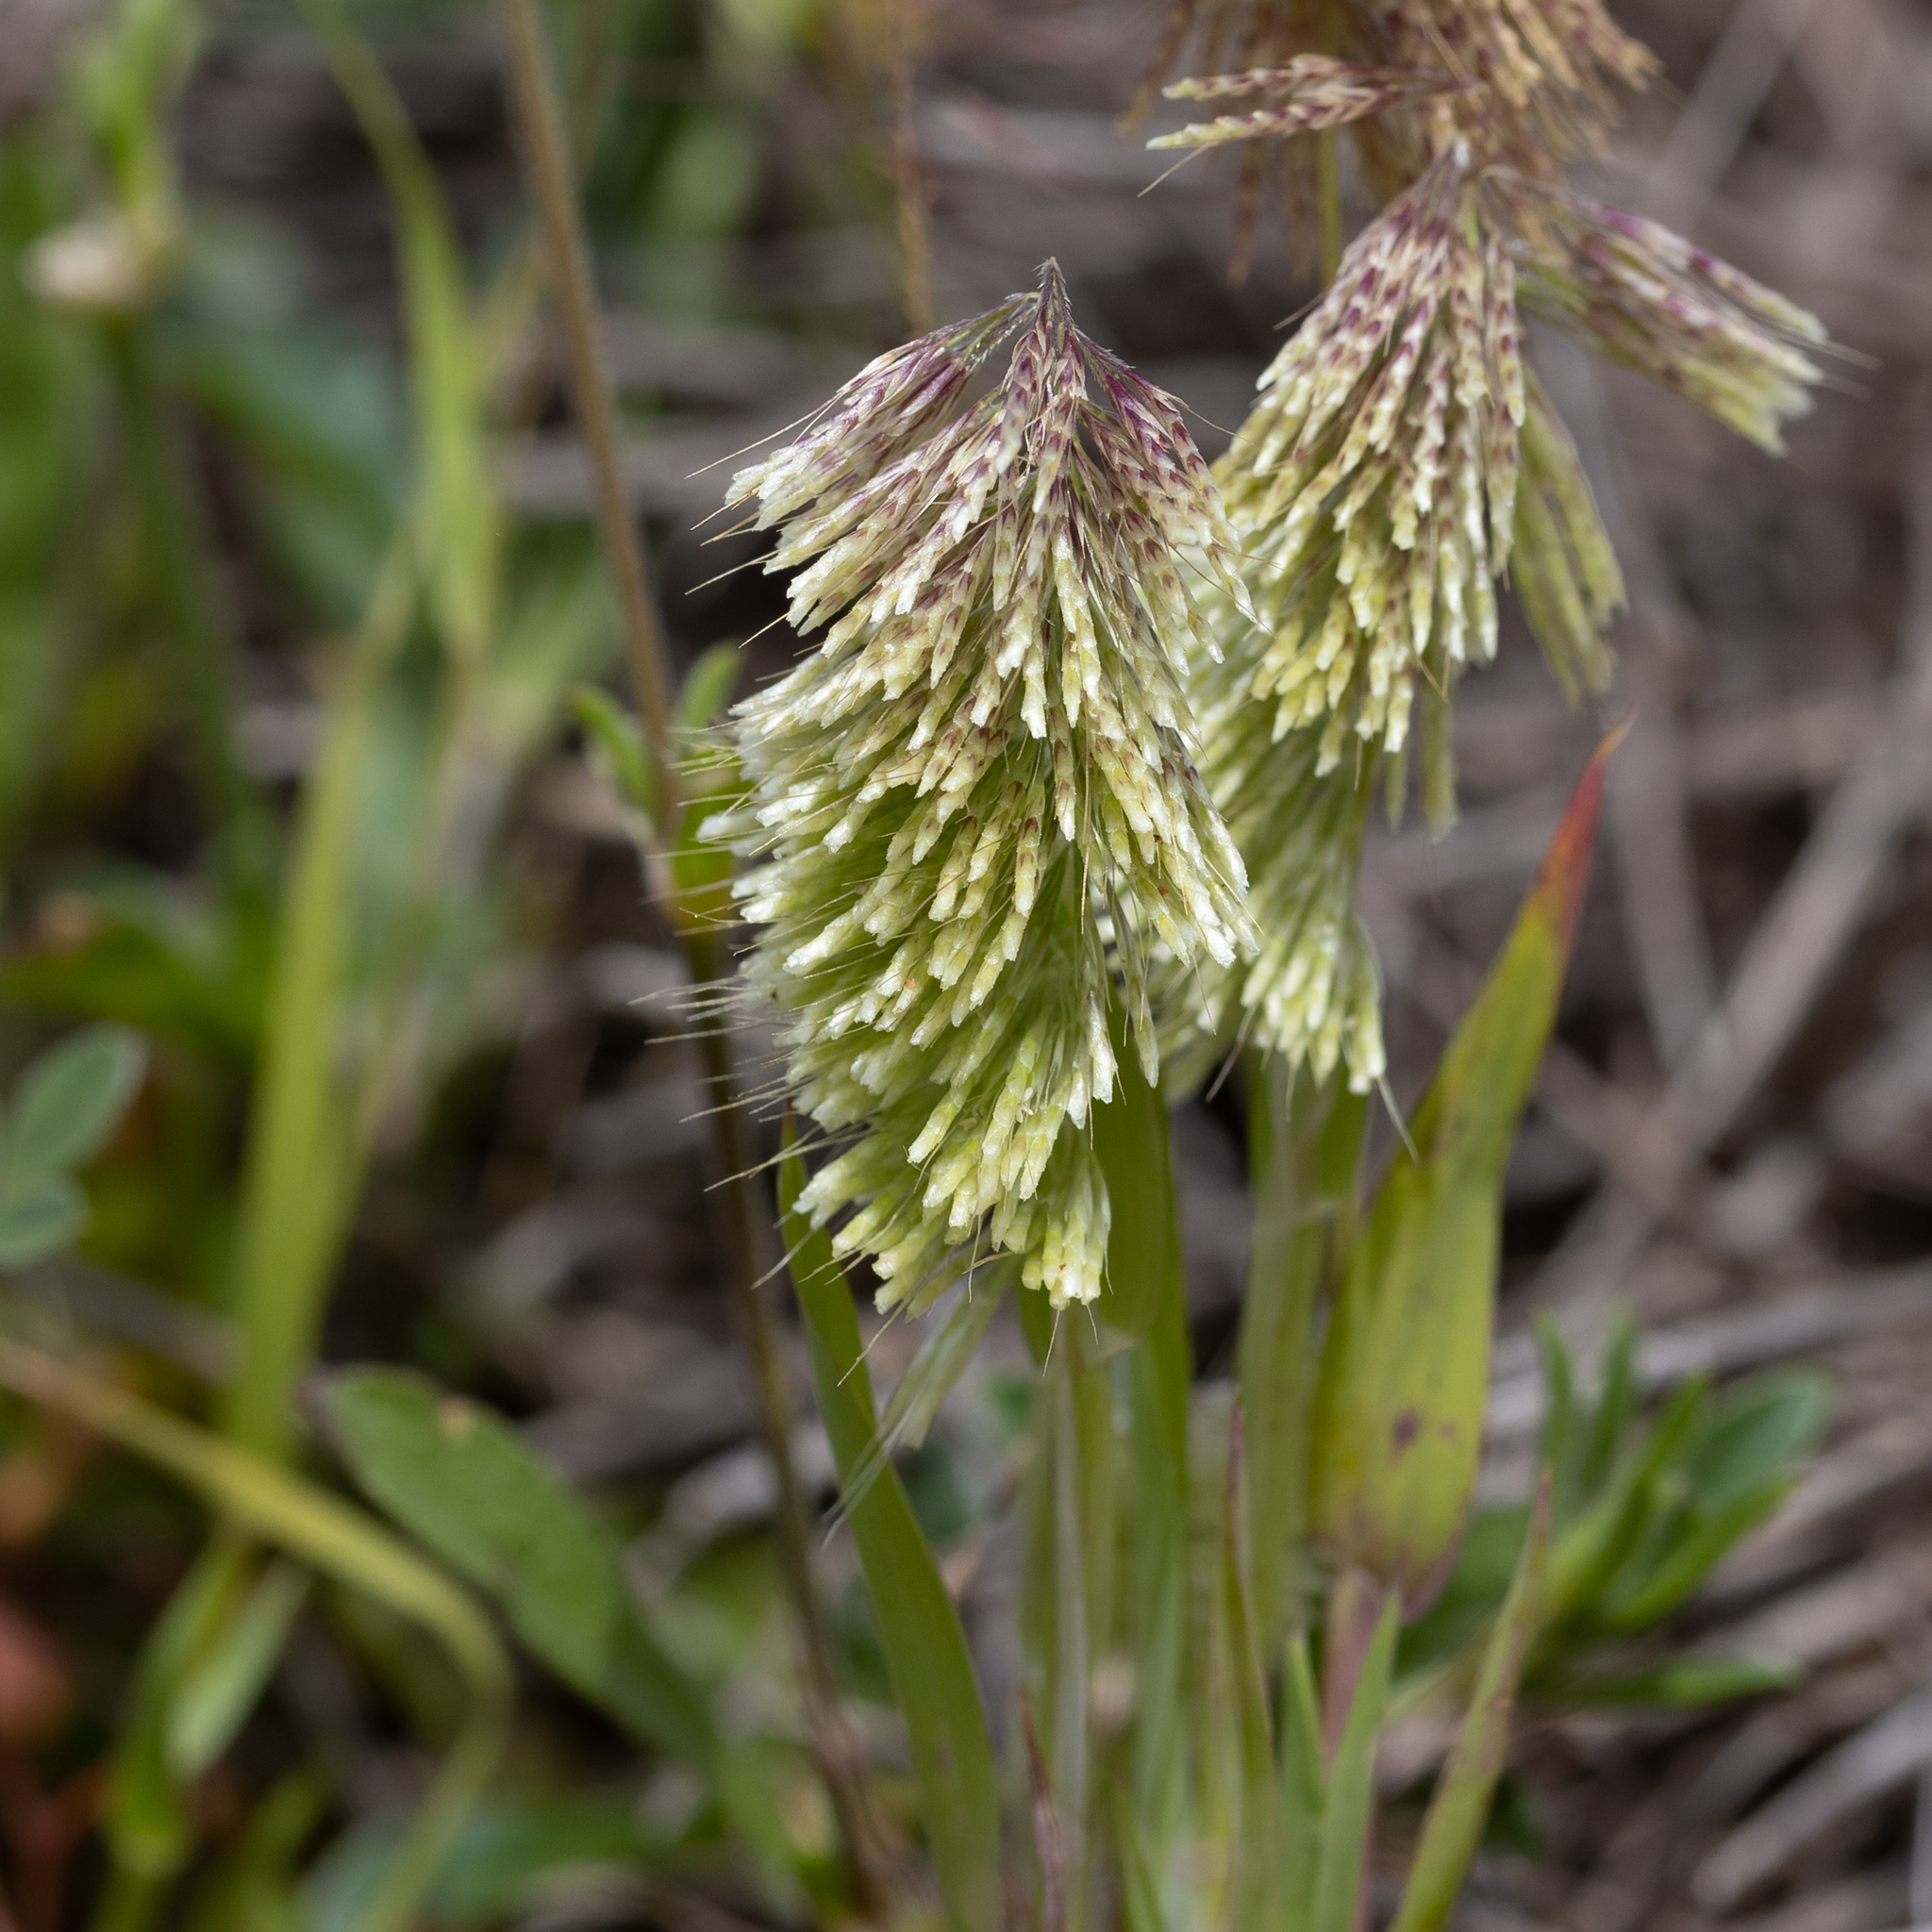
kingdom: Plantae
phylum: Tracheophyta
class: Liliopsida
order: Poales
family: Poaceae
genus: Lamarckia
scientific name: Lamarckia aurea
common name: Golden dog's-tail
